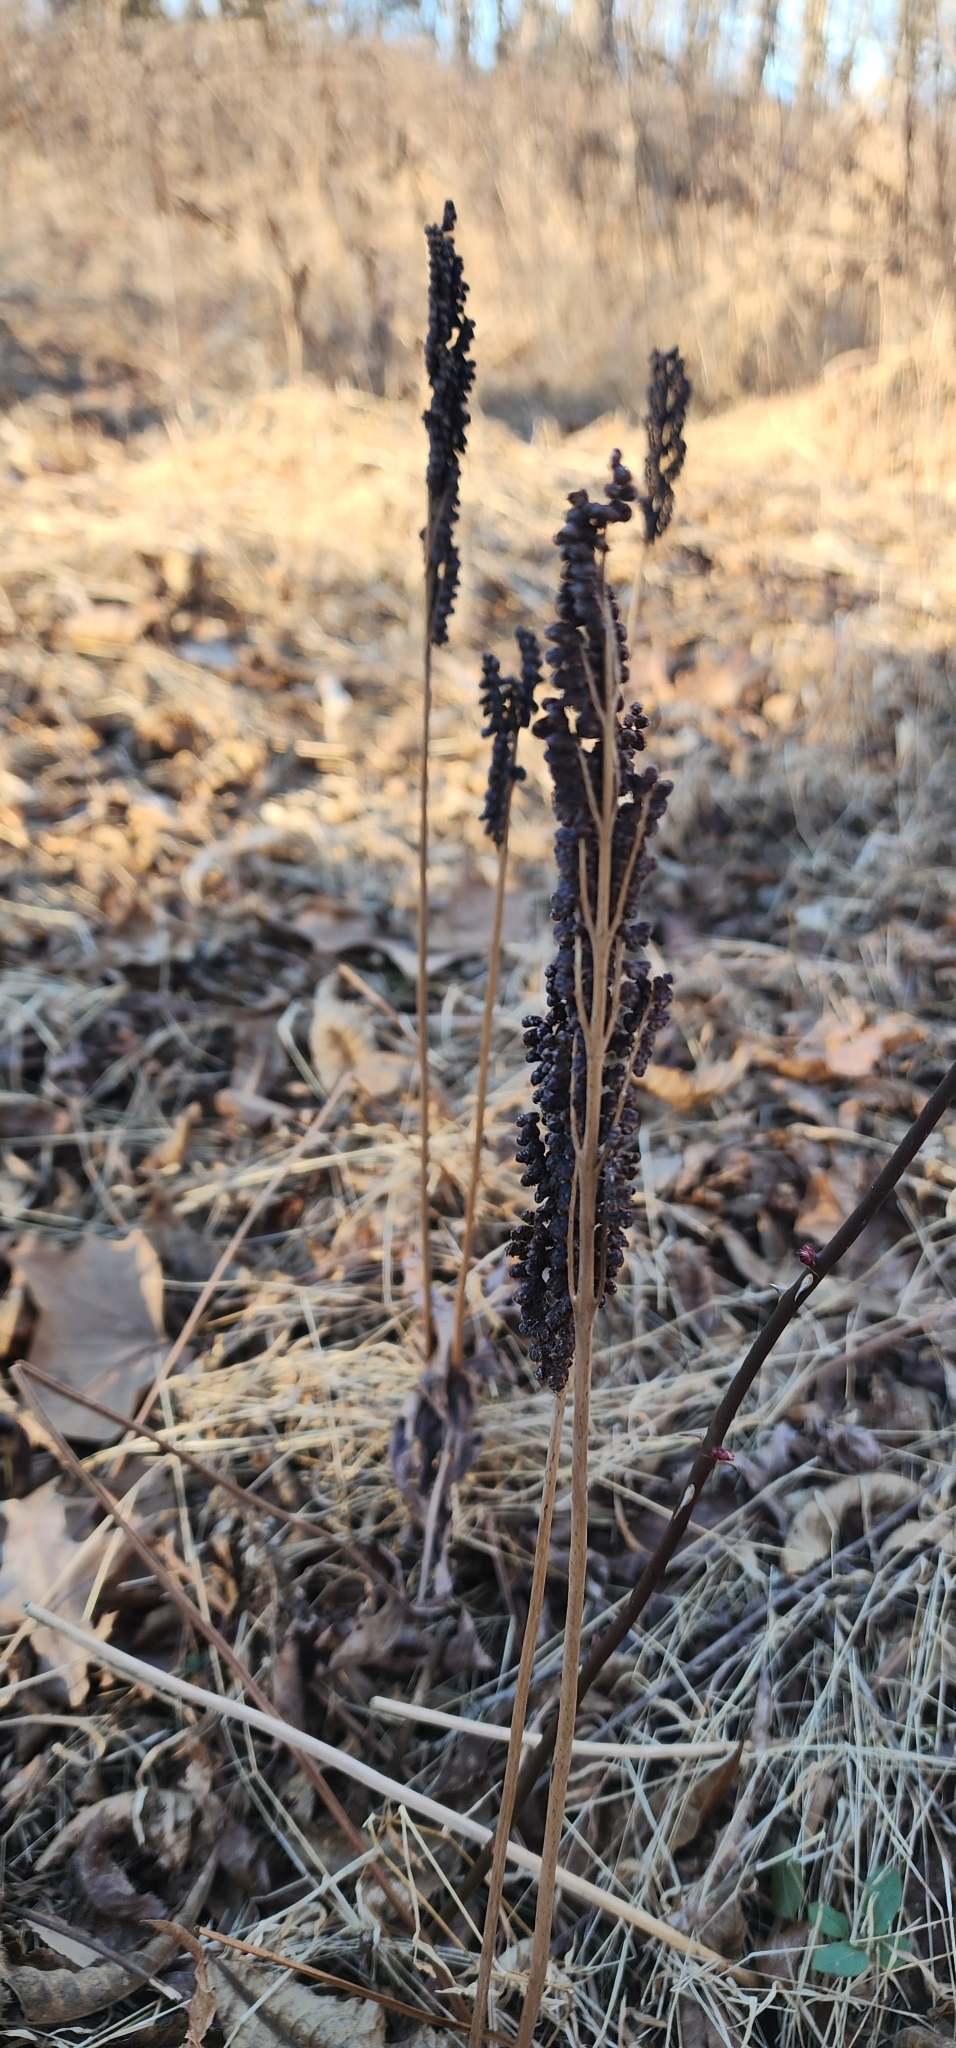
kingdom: Plantae
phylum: Tracheophyta
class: Polypodiopsida
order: Polypodiales
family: Onocleaceae
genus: Onoclea
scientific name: Onoclea sensibilis
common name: Sensitive fern
